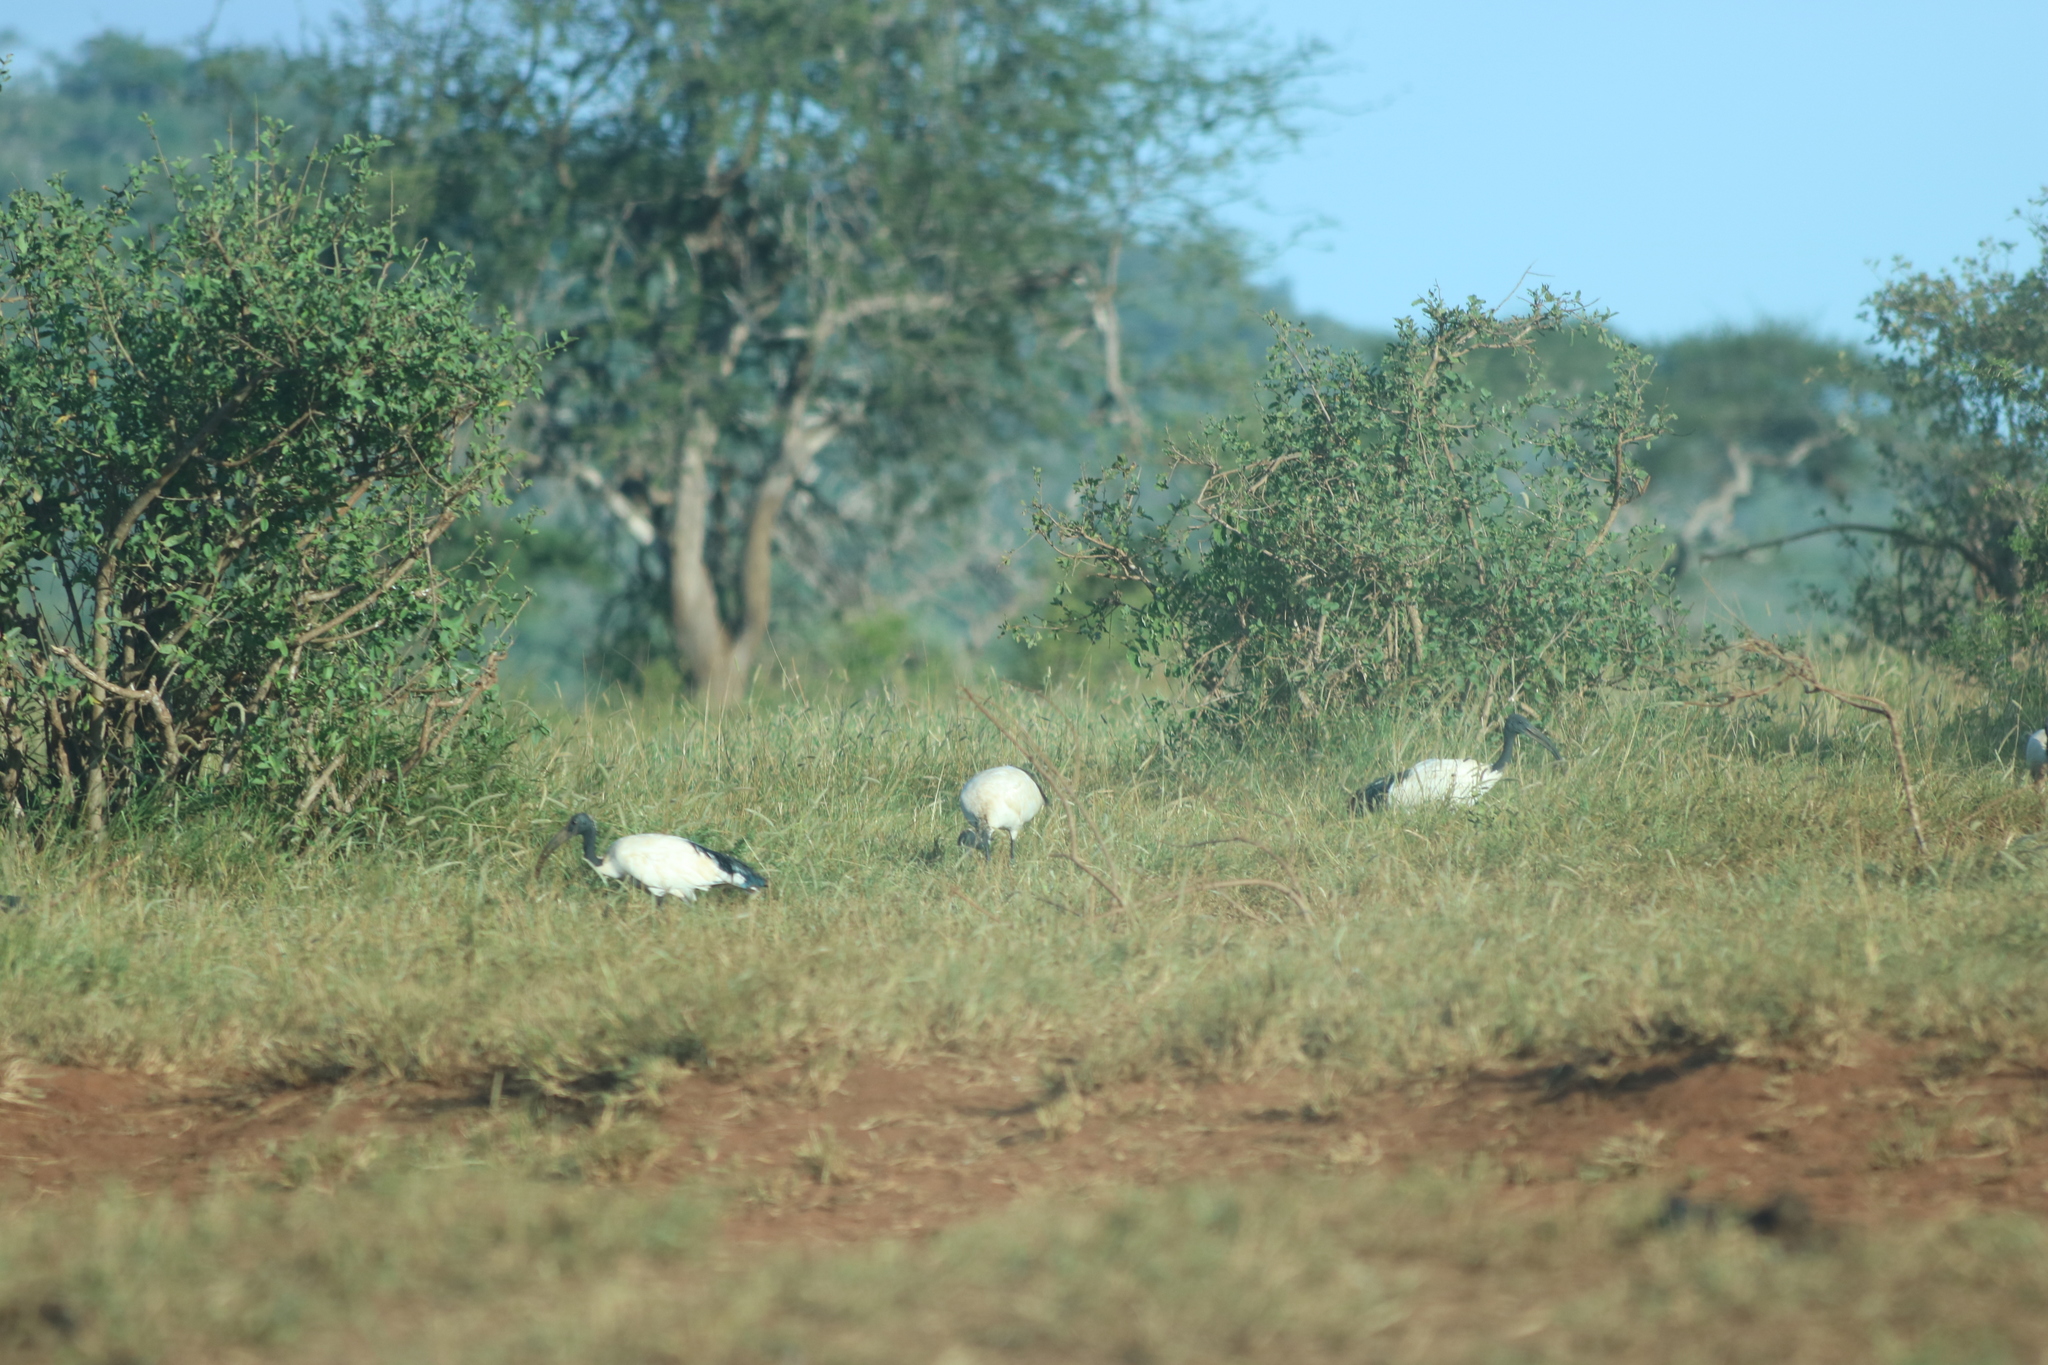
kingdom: Animalia
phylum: Chordata
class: Aves
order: Pelecaniformes
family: Threskiornithidae
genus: Threskiornis
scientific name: Threskiornis aethiopicus
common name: Sacred ibis
